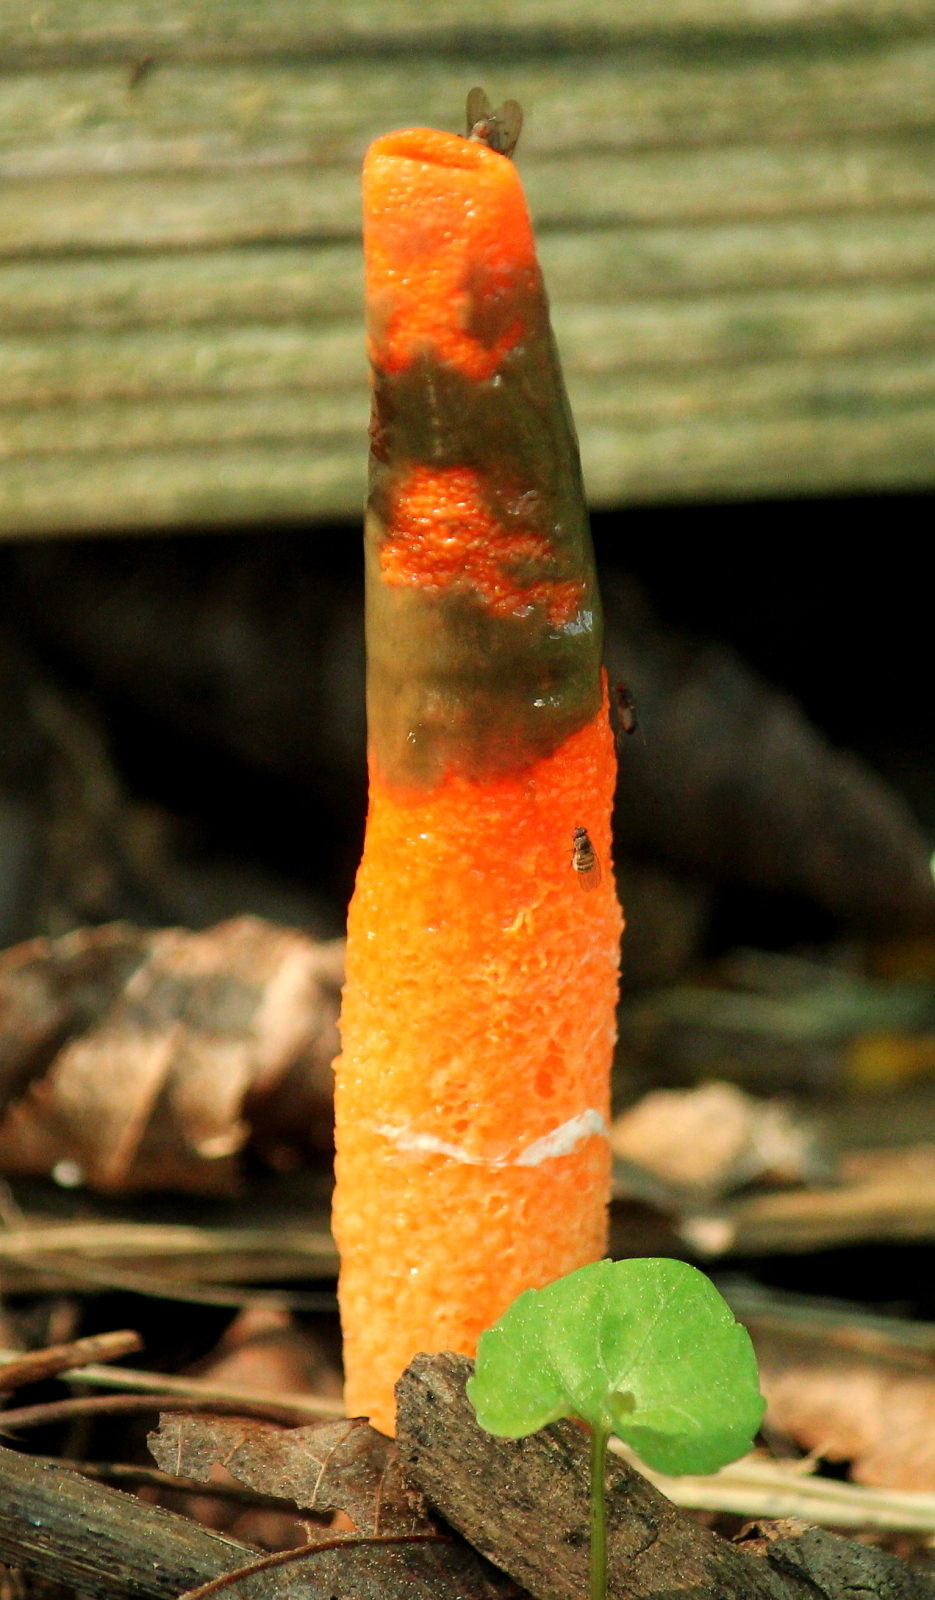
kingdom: Fungi
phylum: Basidiomycota
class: Agaricomycetes
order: Phallales
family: Phallaceae
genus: Mutinus
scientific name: Mutinus elegans
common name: Devil's dipstick
